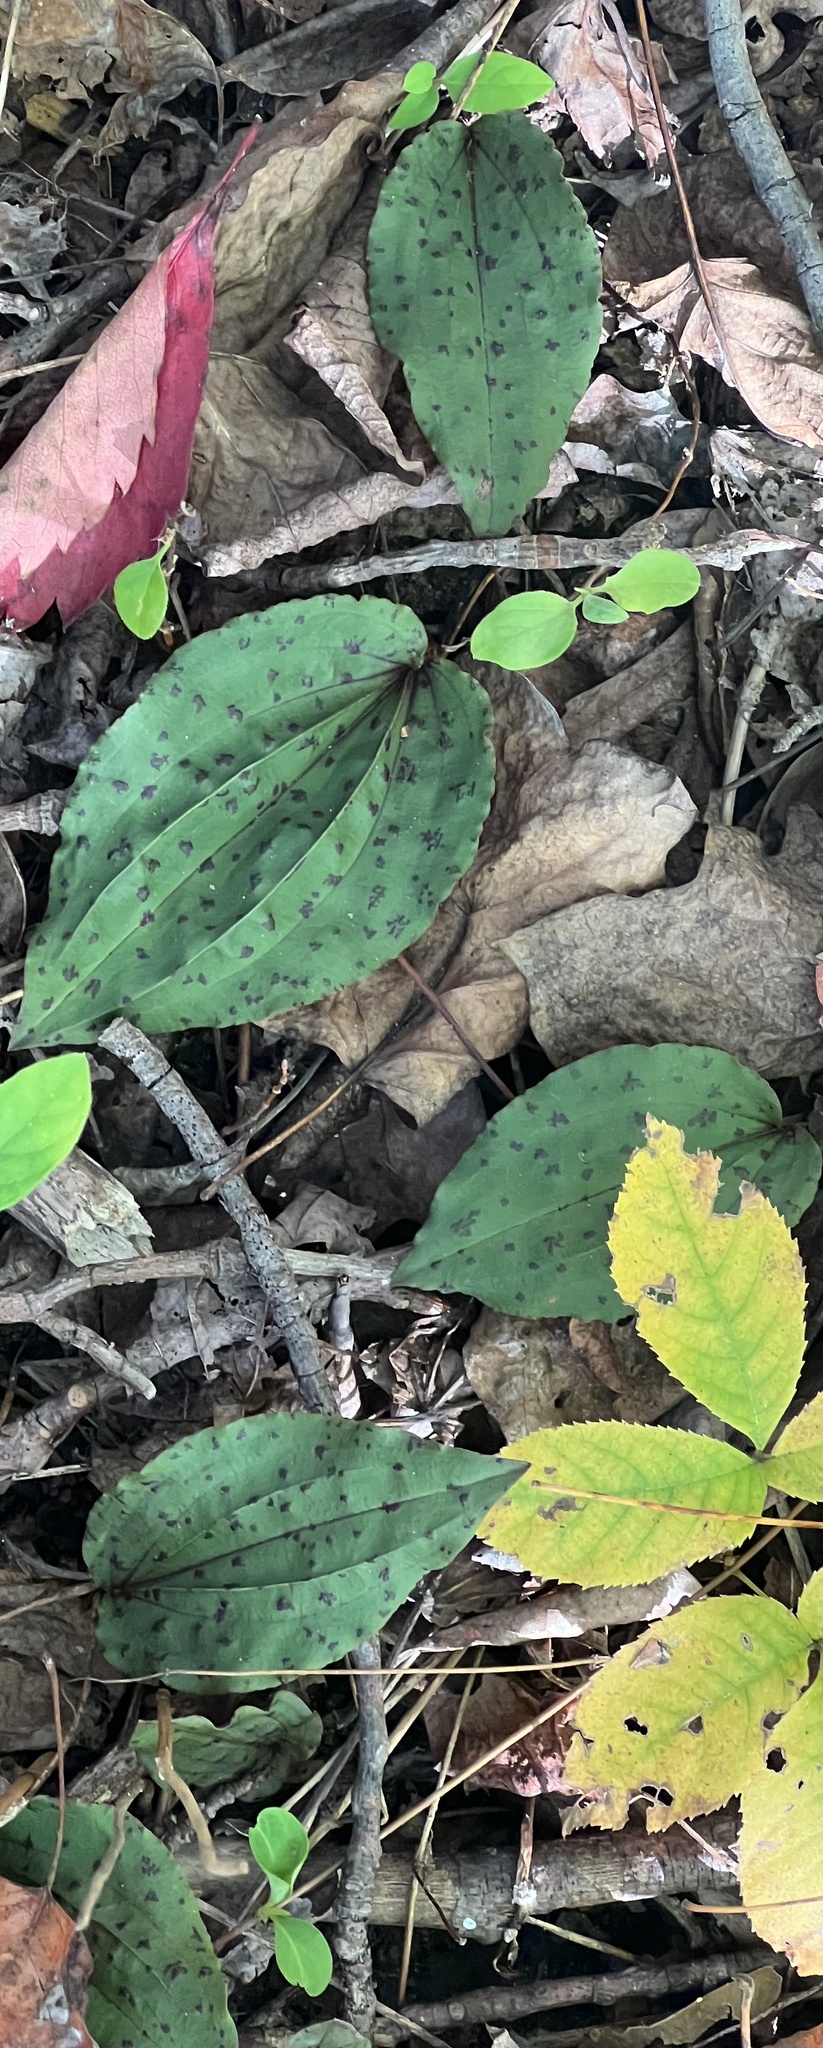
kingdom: Plantae
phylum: Tracheophyta
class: Liliopsida
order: Asparagales
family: Orchidaceae
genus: Tipularia
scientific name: Tipularia discolor
